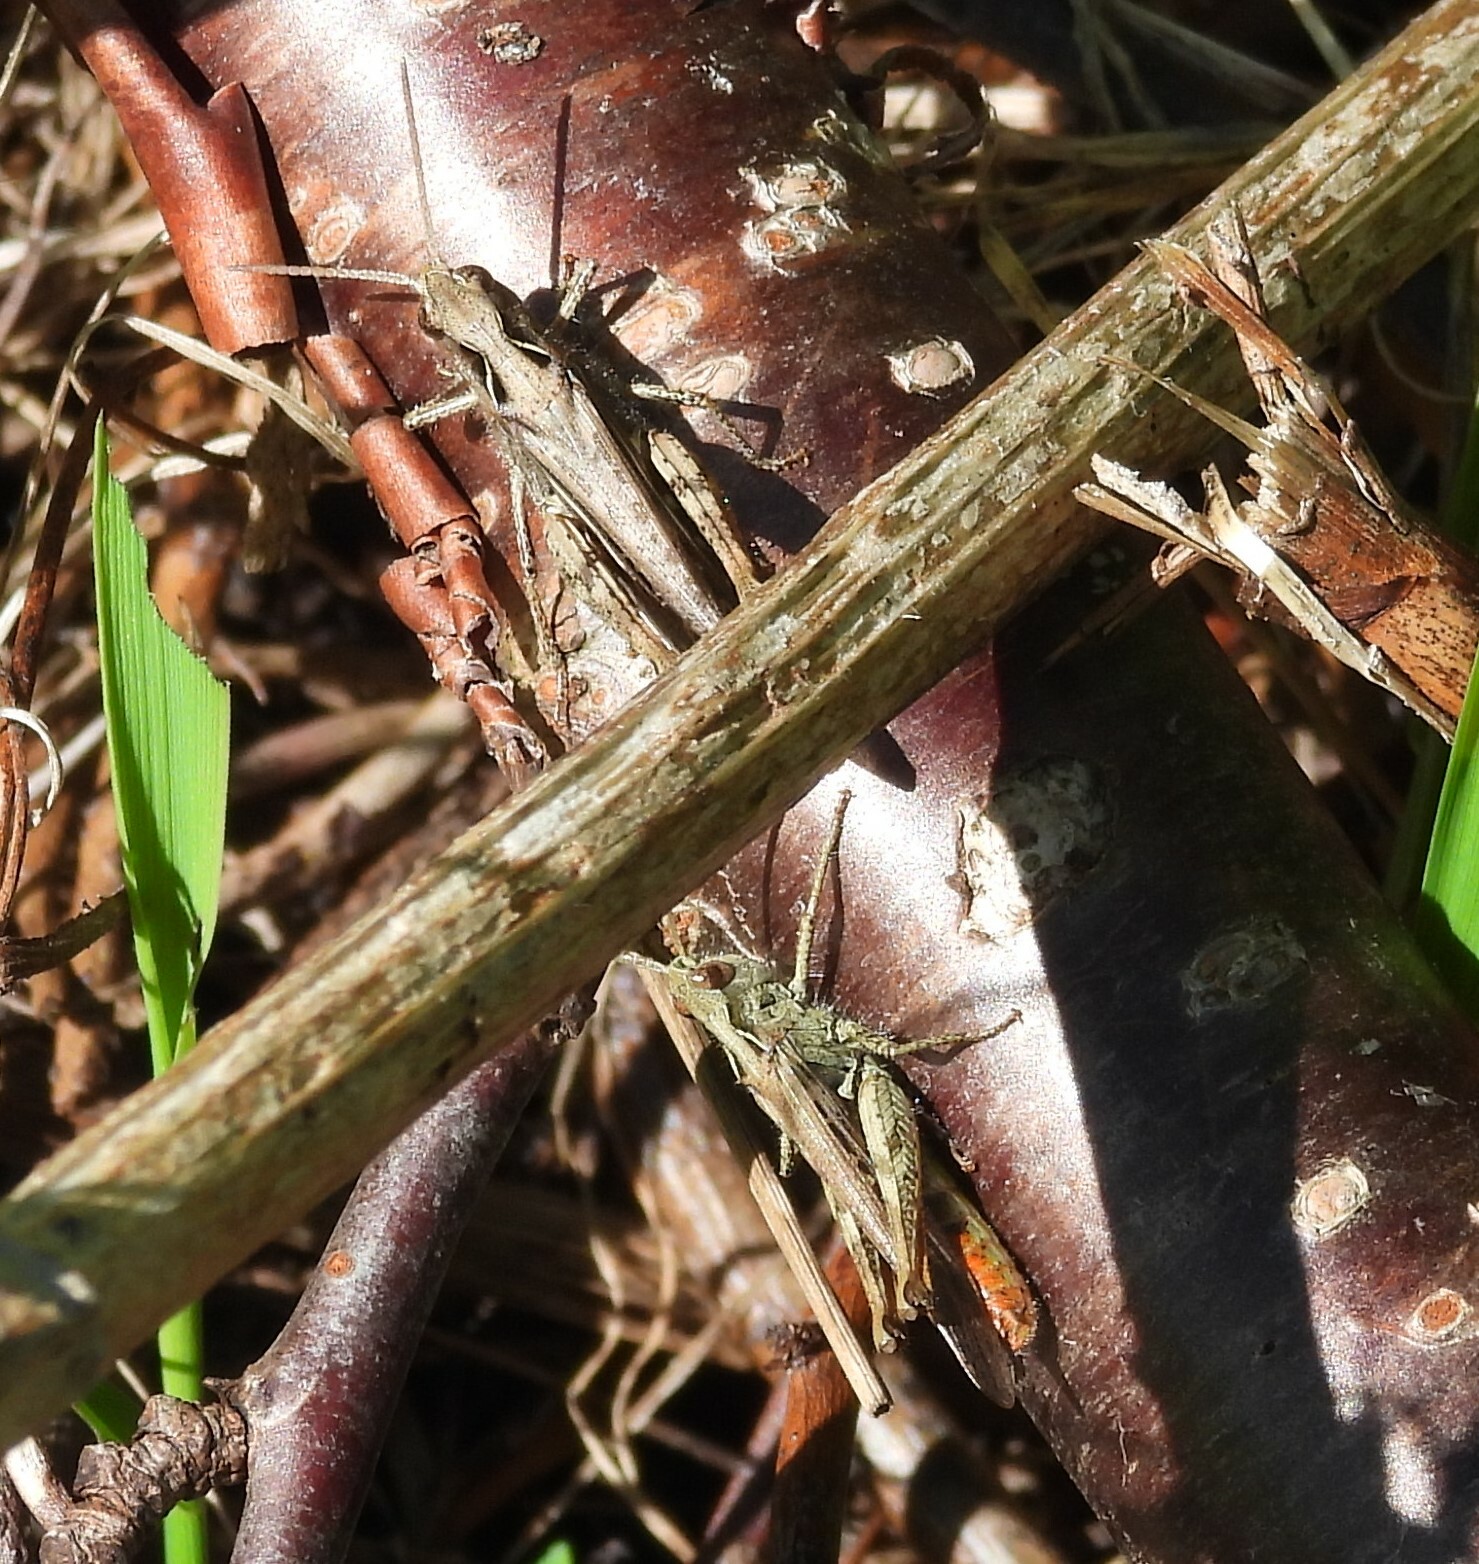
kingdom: Animalia
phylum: Arthropoda
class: Insecta
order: Orthoptera
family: Acrididae
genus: Chorthippus
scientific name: Chorthippus brunneus
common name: Field grasshopper
